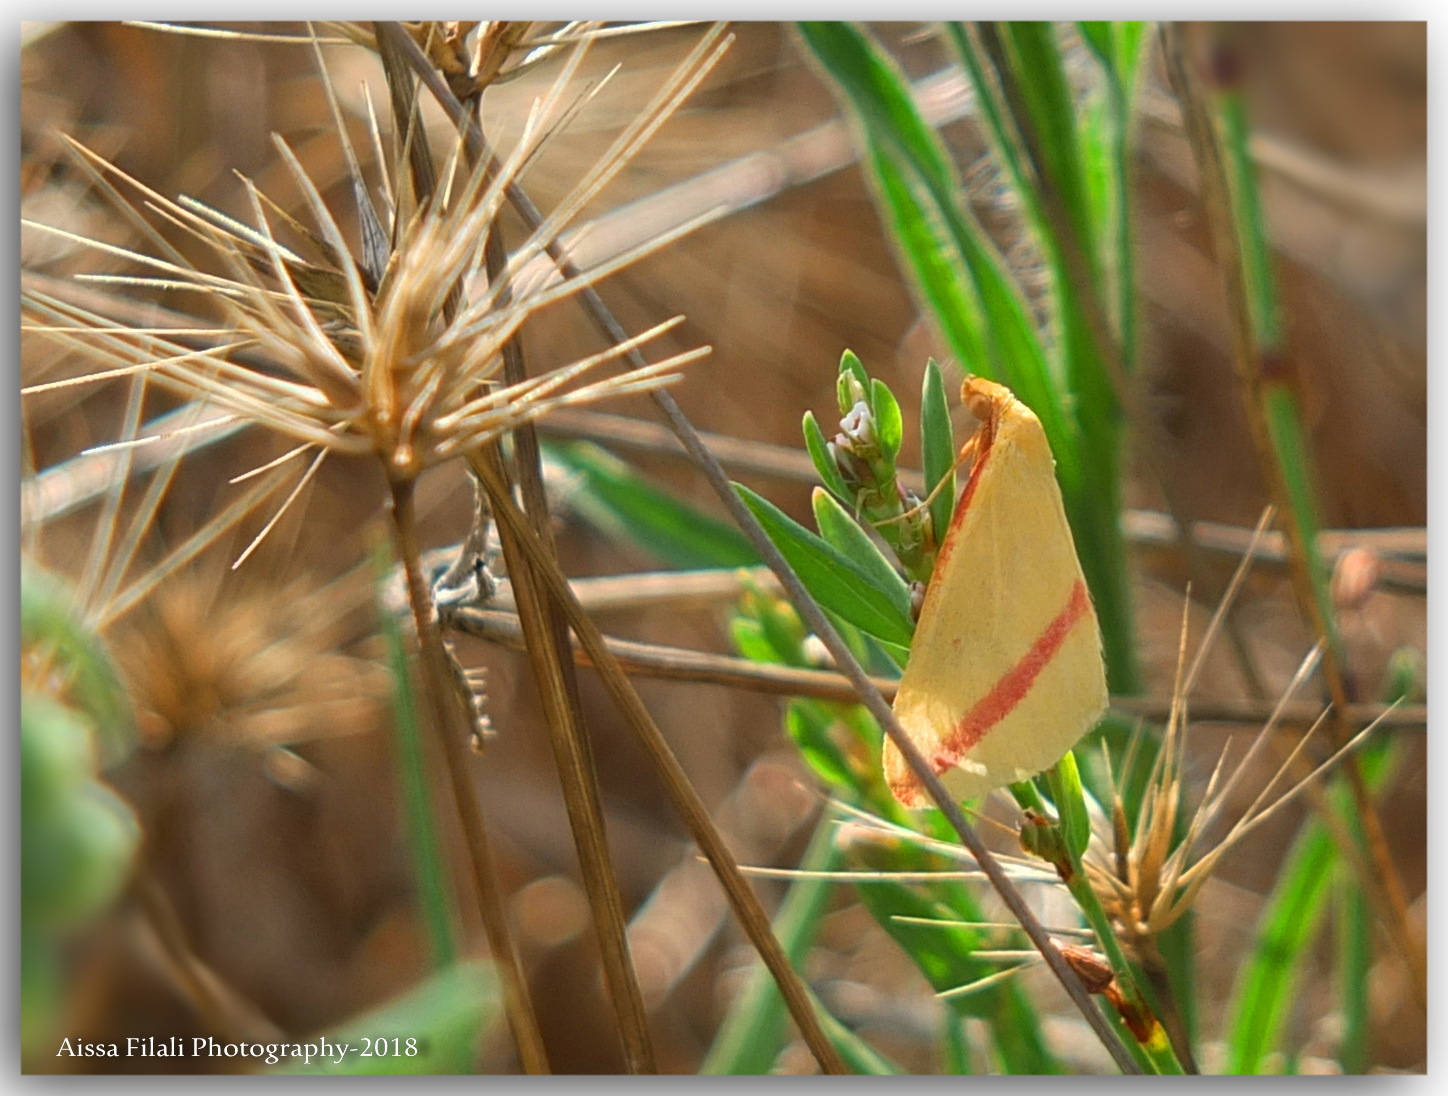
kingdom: Animalia
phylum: Arthropoda
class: Insecta
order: Lepidoptera
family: Geometridae
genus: Rhodometra
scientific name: Rhodometra sacraria
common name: Vestal
